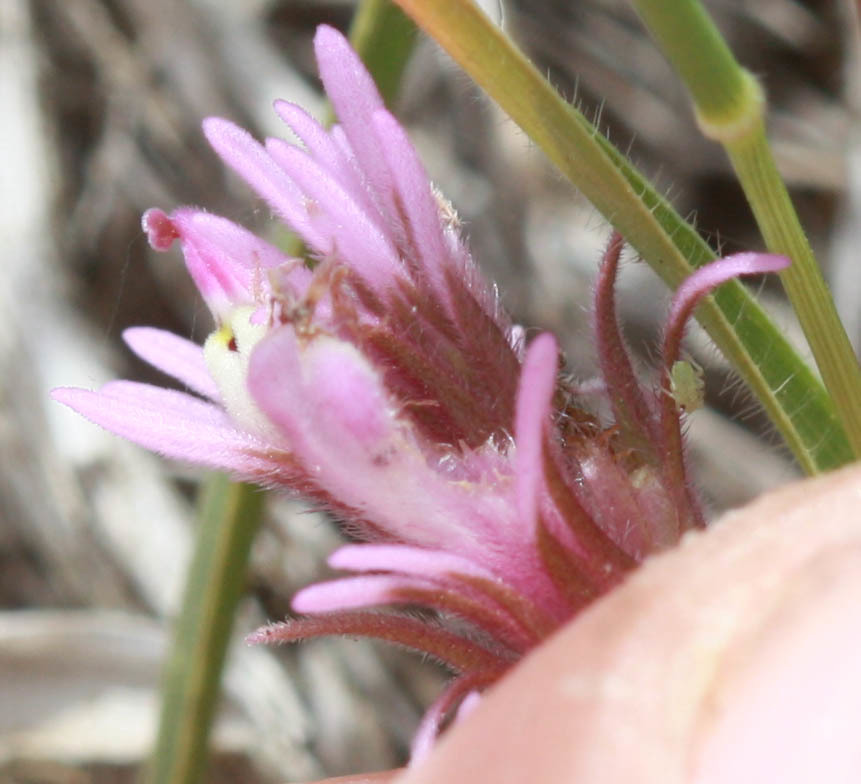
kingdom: Plantae
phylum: Tracheophyta
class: Magnoliopsida
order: Lamiales
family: Orobanchaceae
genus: Castilleja
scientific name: Castilleja densiflora
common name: Dense-flower indian paintbrush
